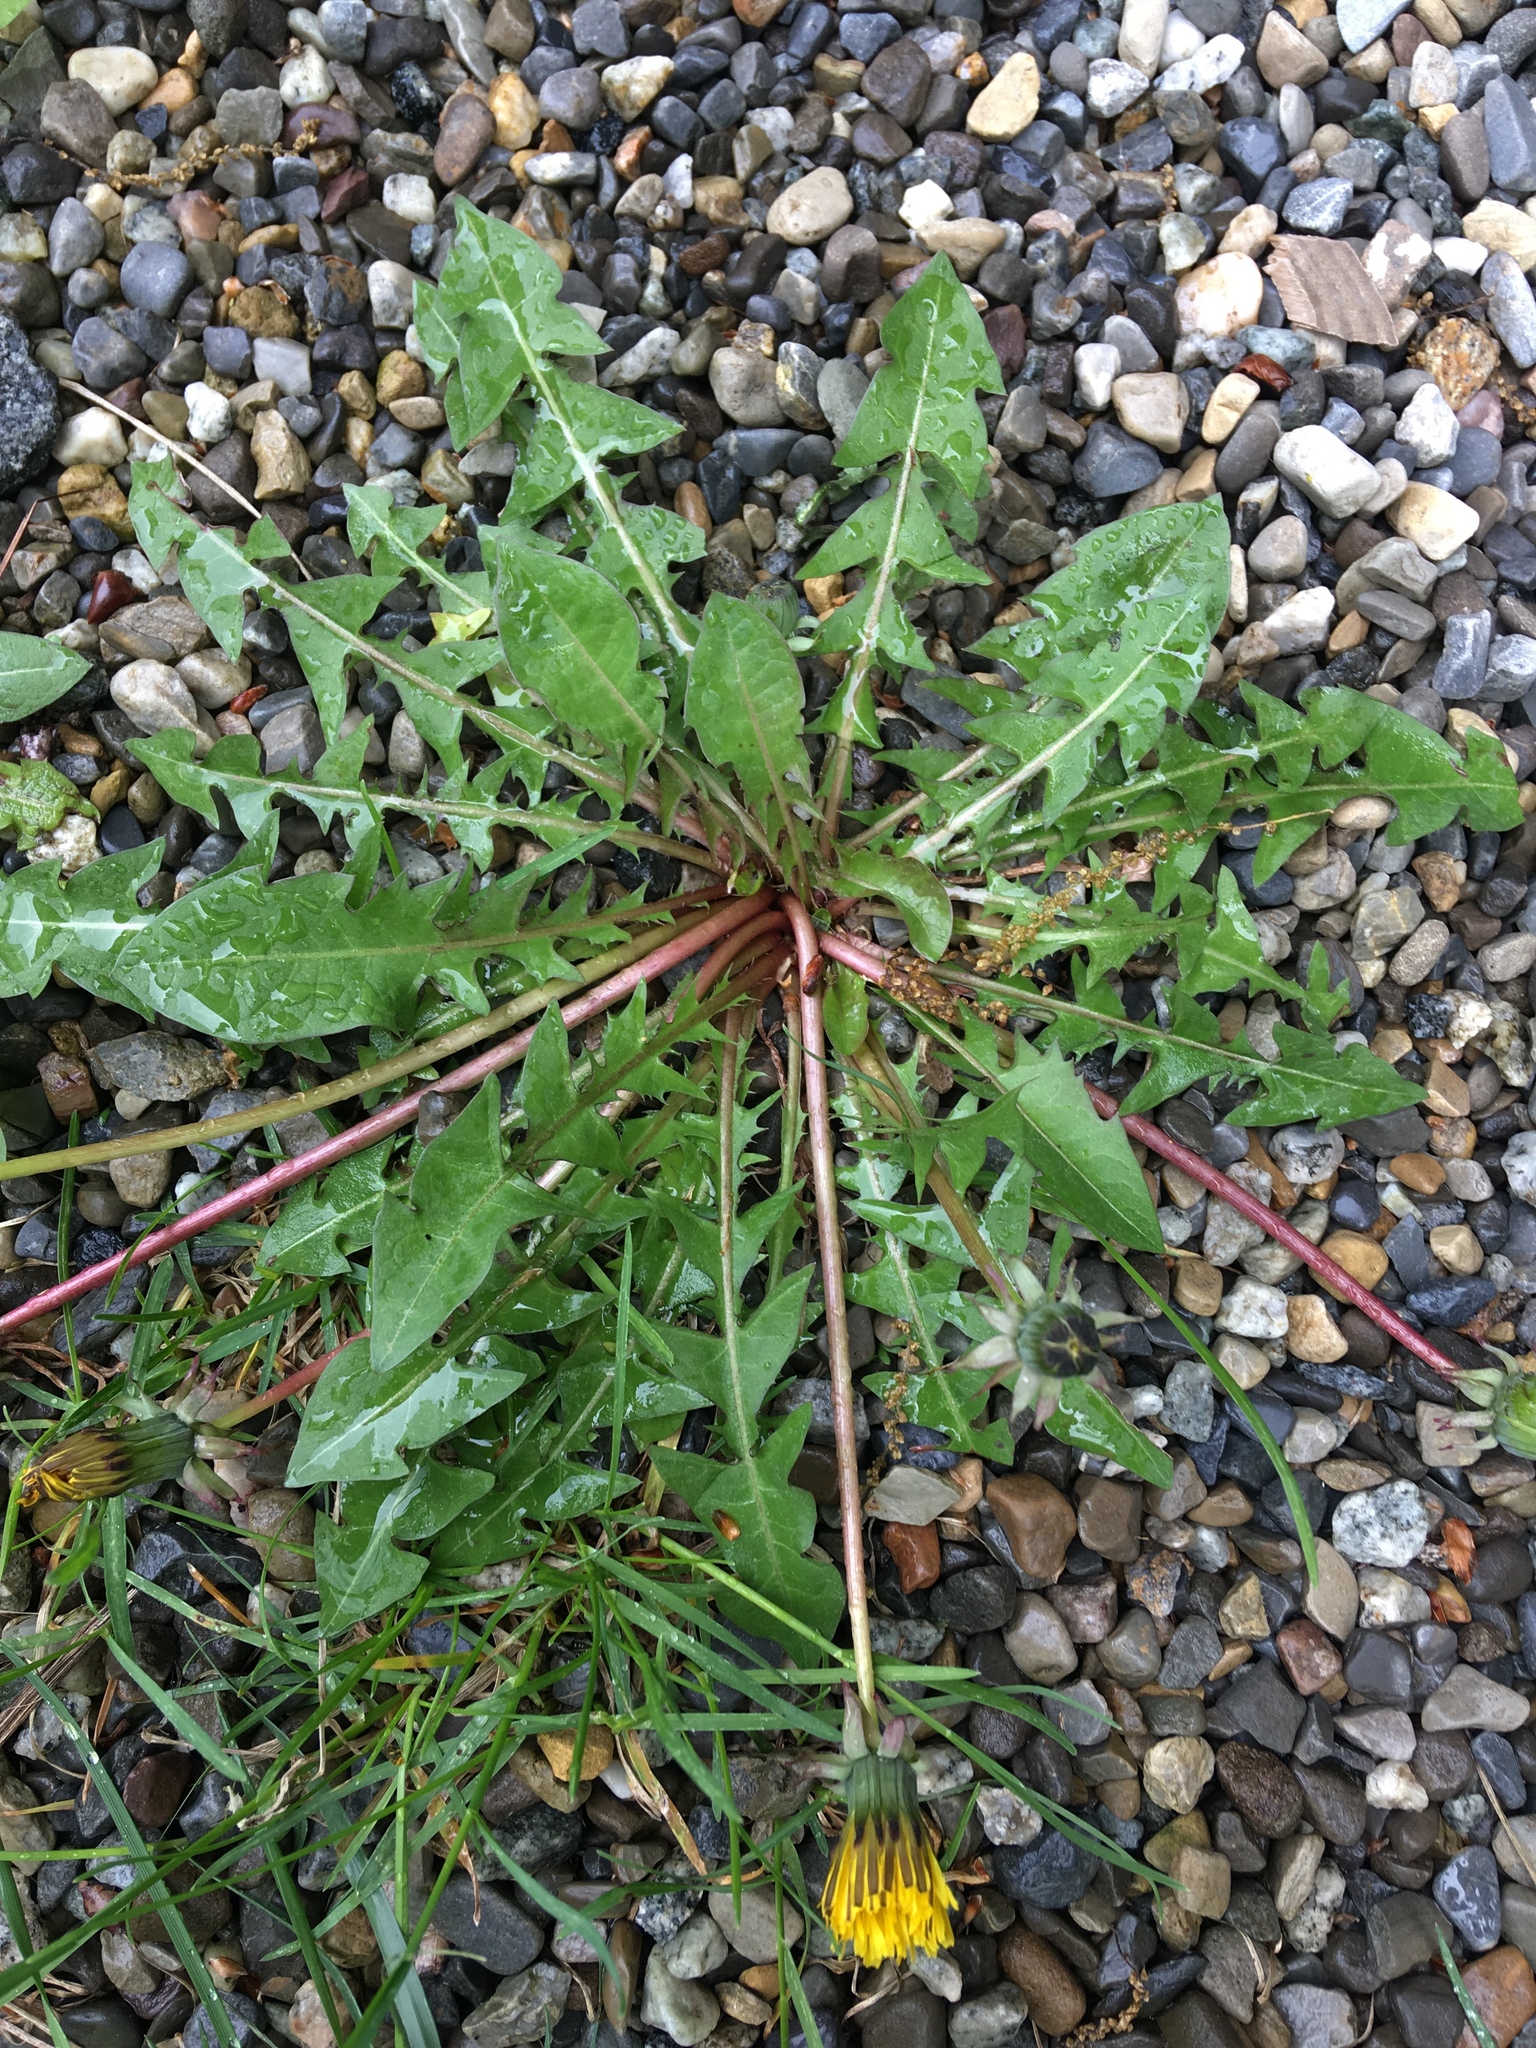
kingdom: Plantae
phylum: Tracheophyta
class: Magnoliopsida
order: Asterales
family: Asteraceae
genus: Taraxacum
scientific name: Taraxacum officinale
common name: Common dandelion
